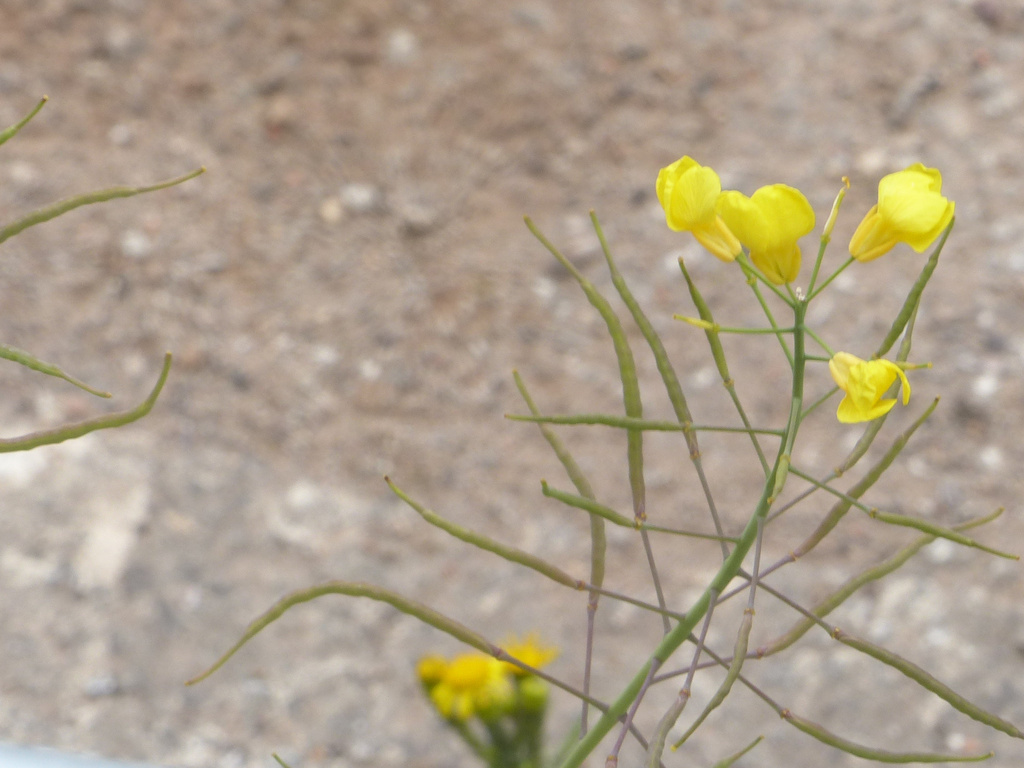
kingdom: Plantae
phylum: Tracheophyta
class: Magnoliopsida
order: Brassicales
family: Brassicaceae
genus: Brassica
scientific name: Brassica napus
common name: Rape
